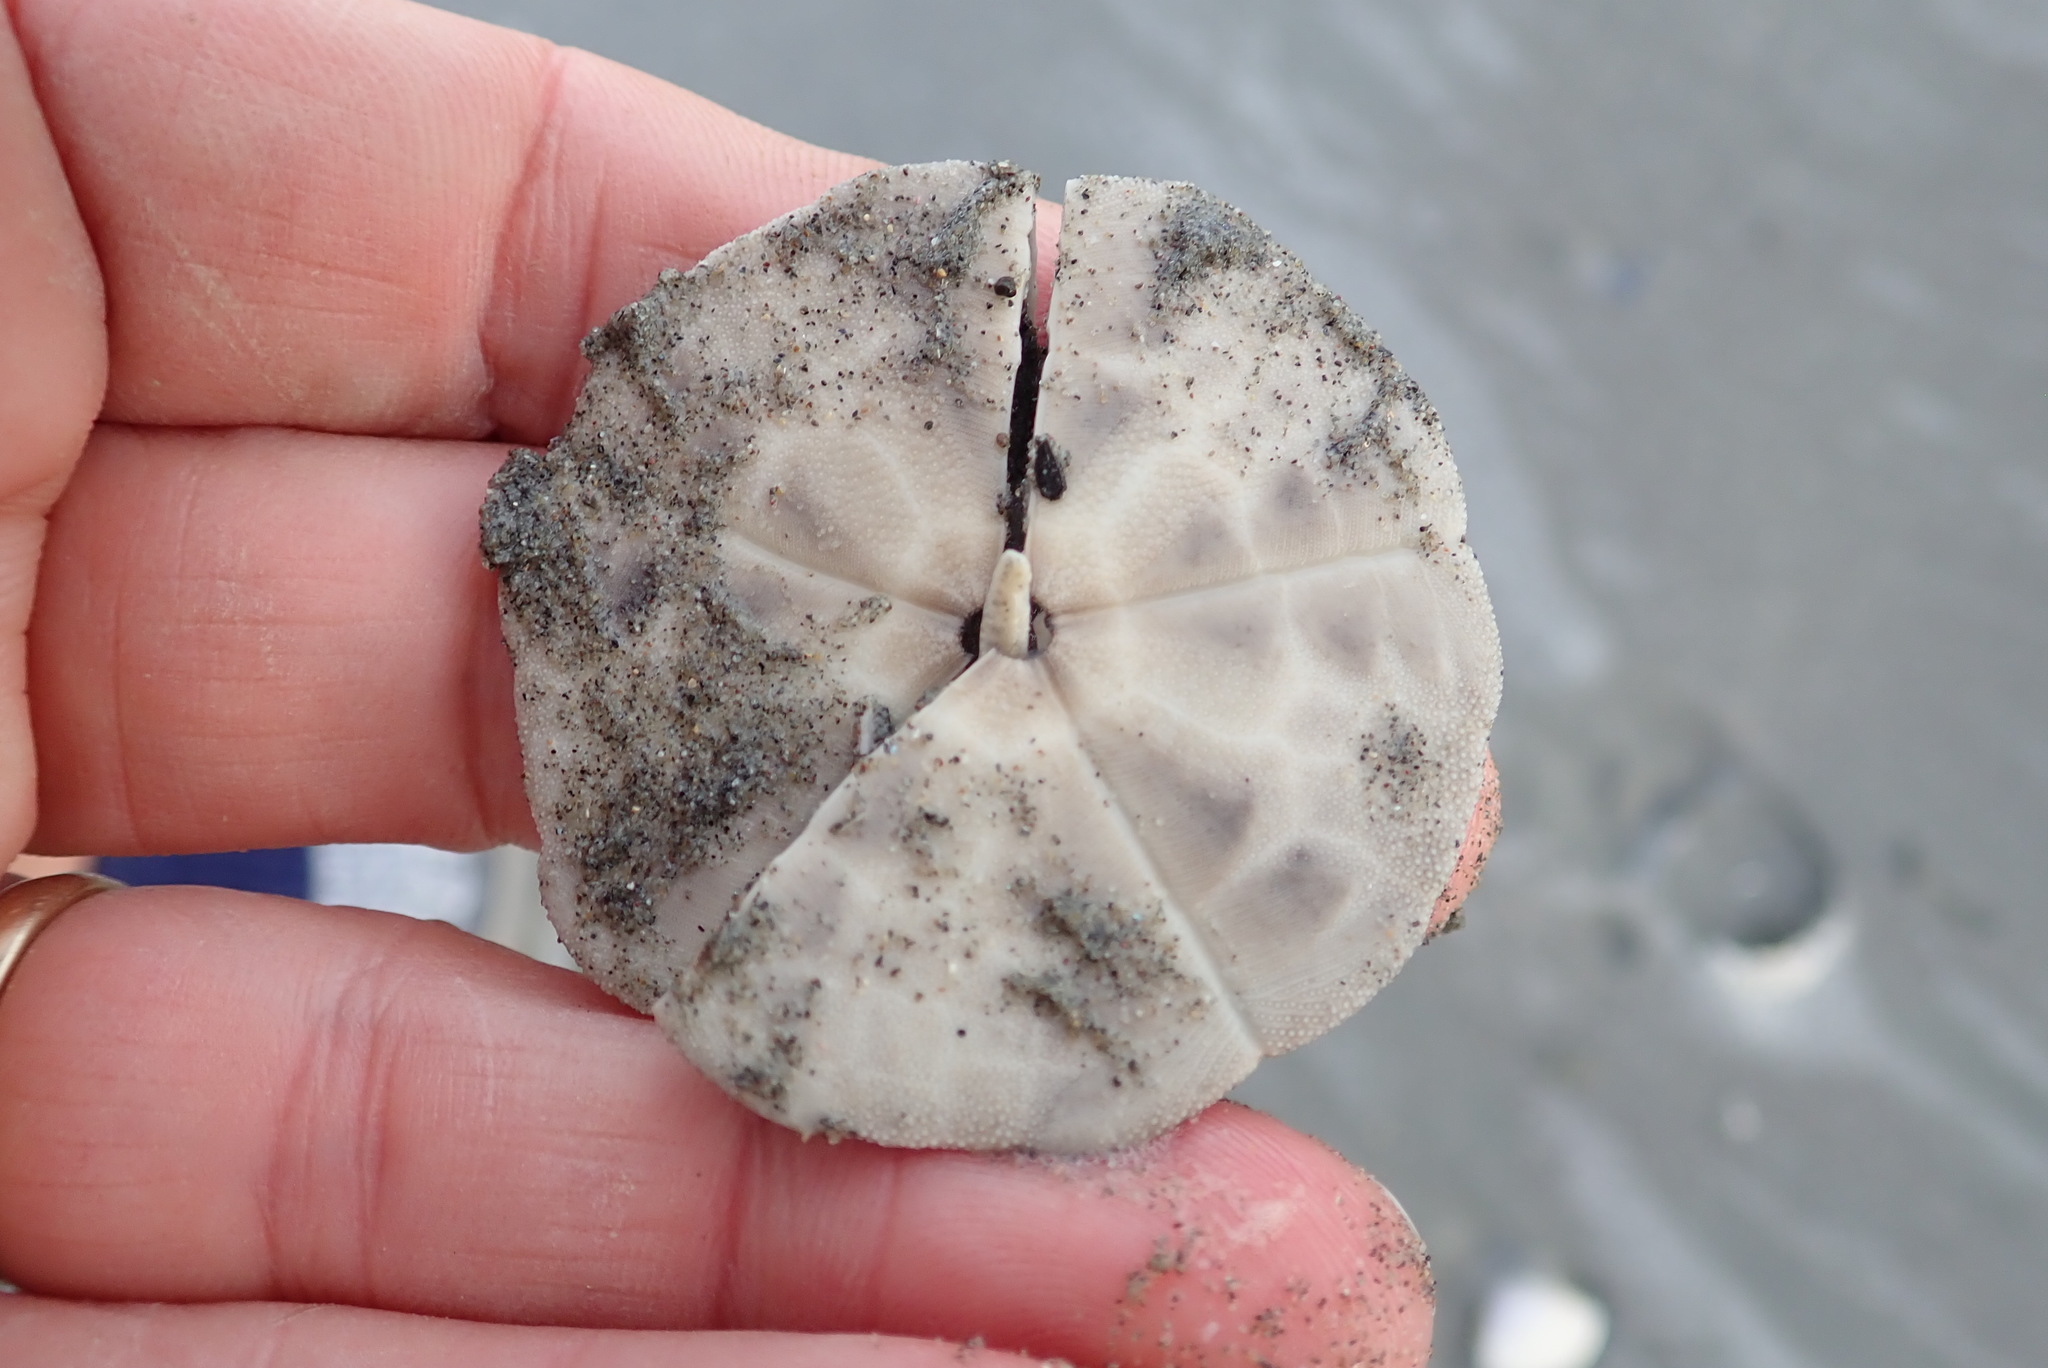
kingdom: Animalia
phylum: Echinodermata
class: Echinoidea
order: Clypeasteroida
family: Clypeasteridae
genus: Fellaster
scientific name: Fellaster zelandiae
